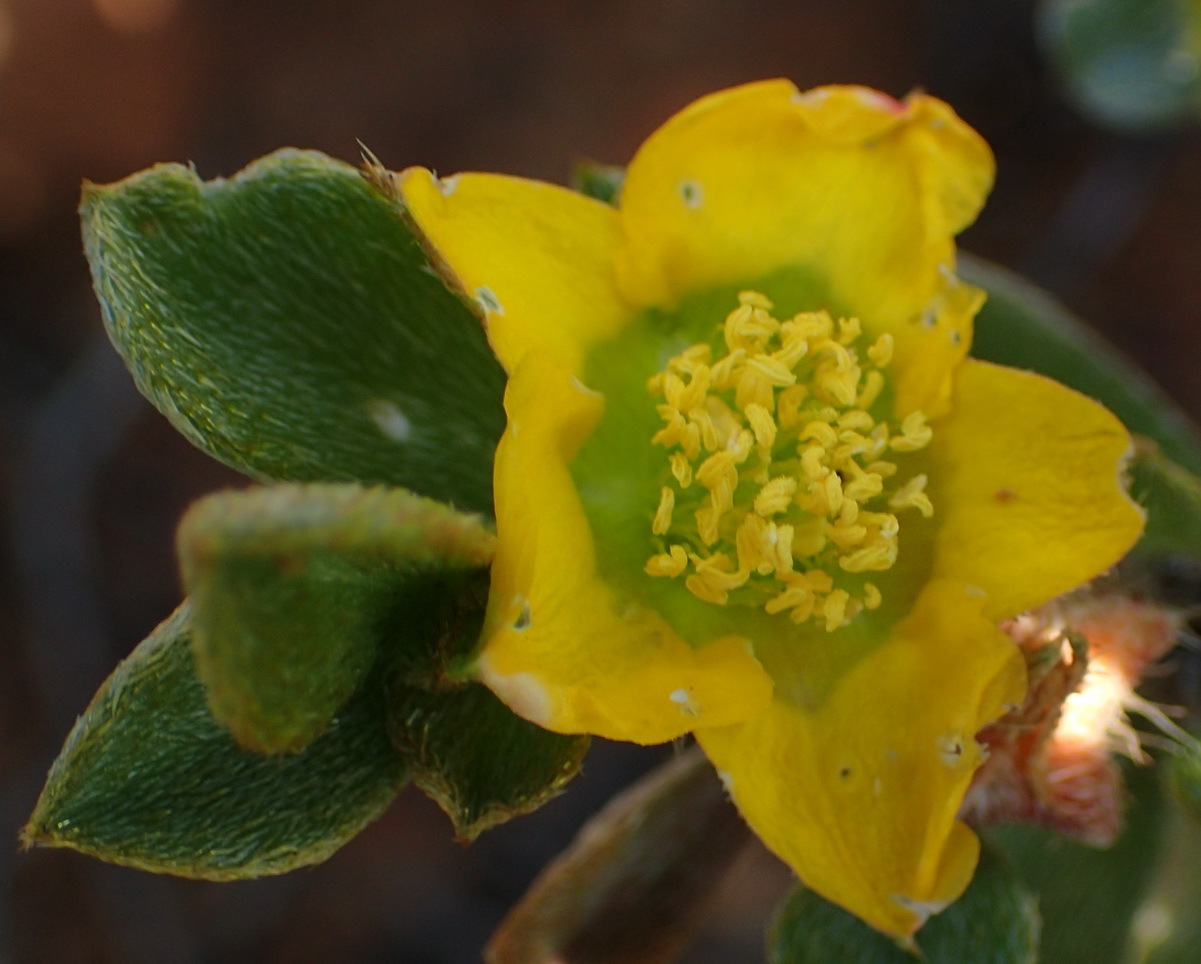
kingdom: Plantae
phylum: Tracheophyta
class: Magnoliopsida
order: Caryophyllales
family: Aizoaceae
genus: Aizoon
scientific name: Aizoon karooicum
